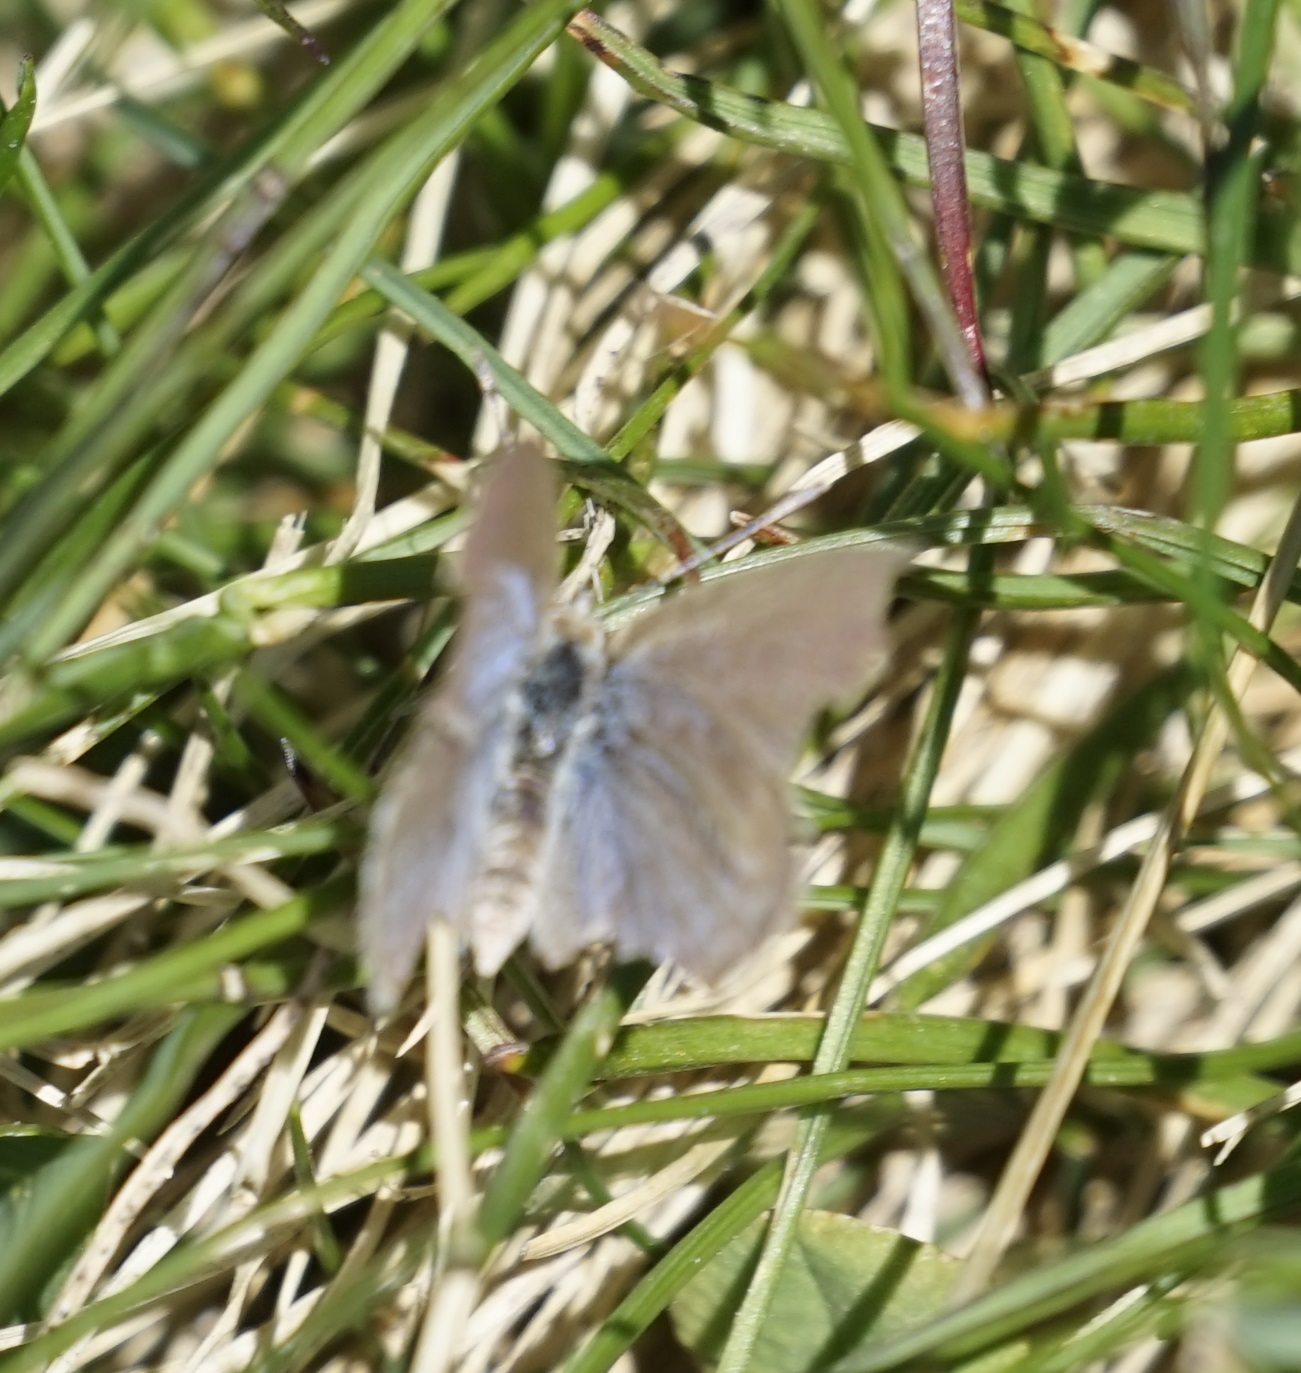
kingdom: Animalia
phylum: Arthropoda
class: Insecta
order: Lepidoptera
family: Lycaenidae
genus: Zizina
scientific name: Zizina otis
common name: Lesser grass blue
